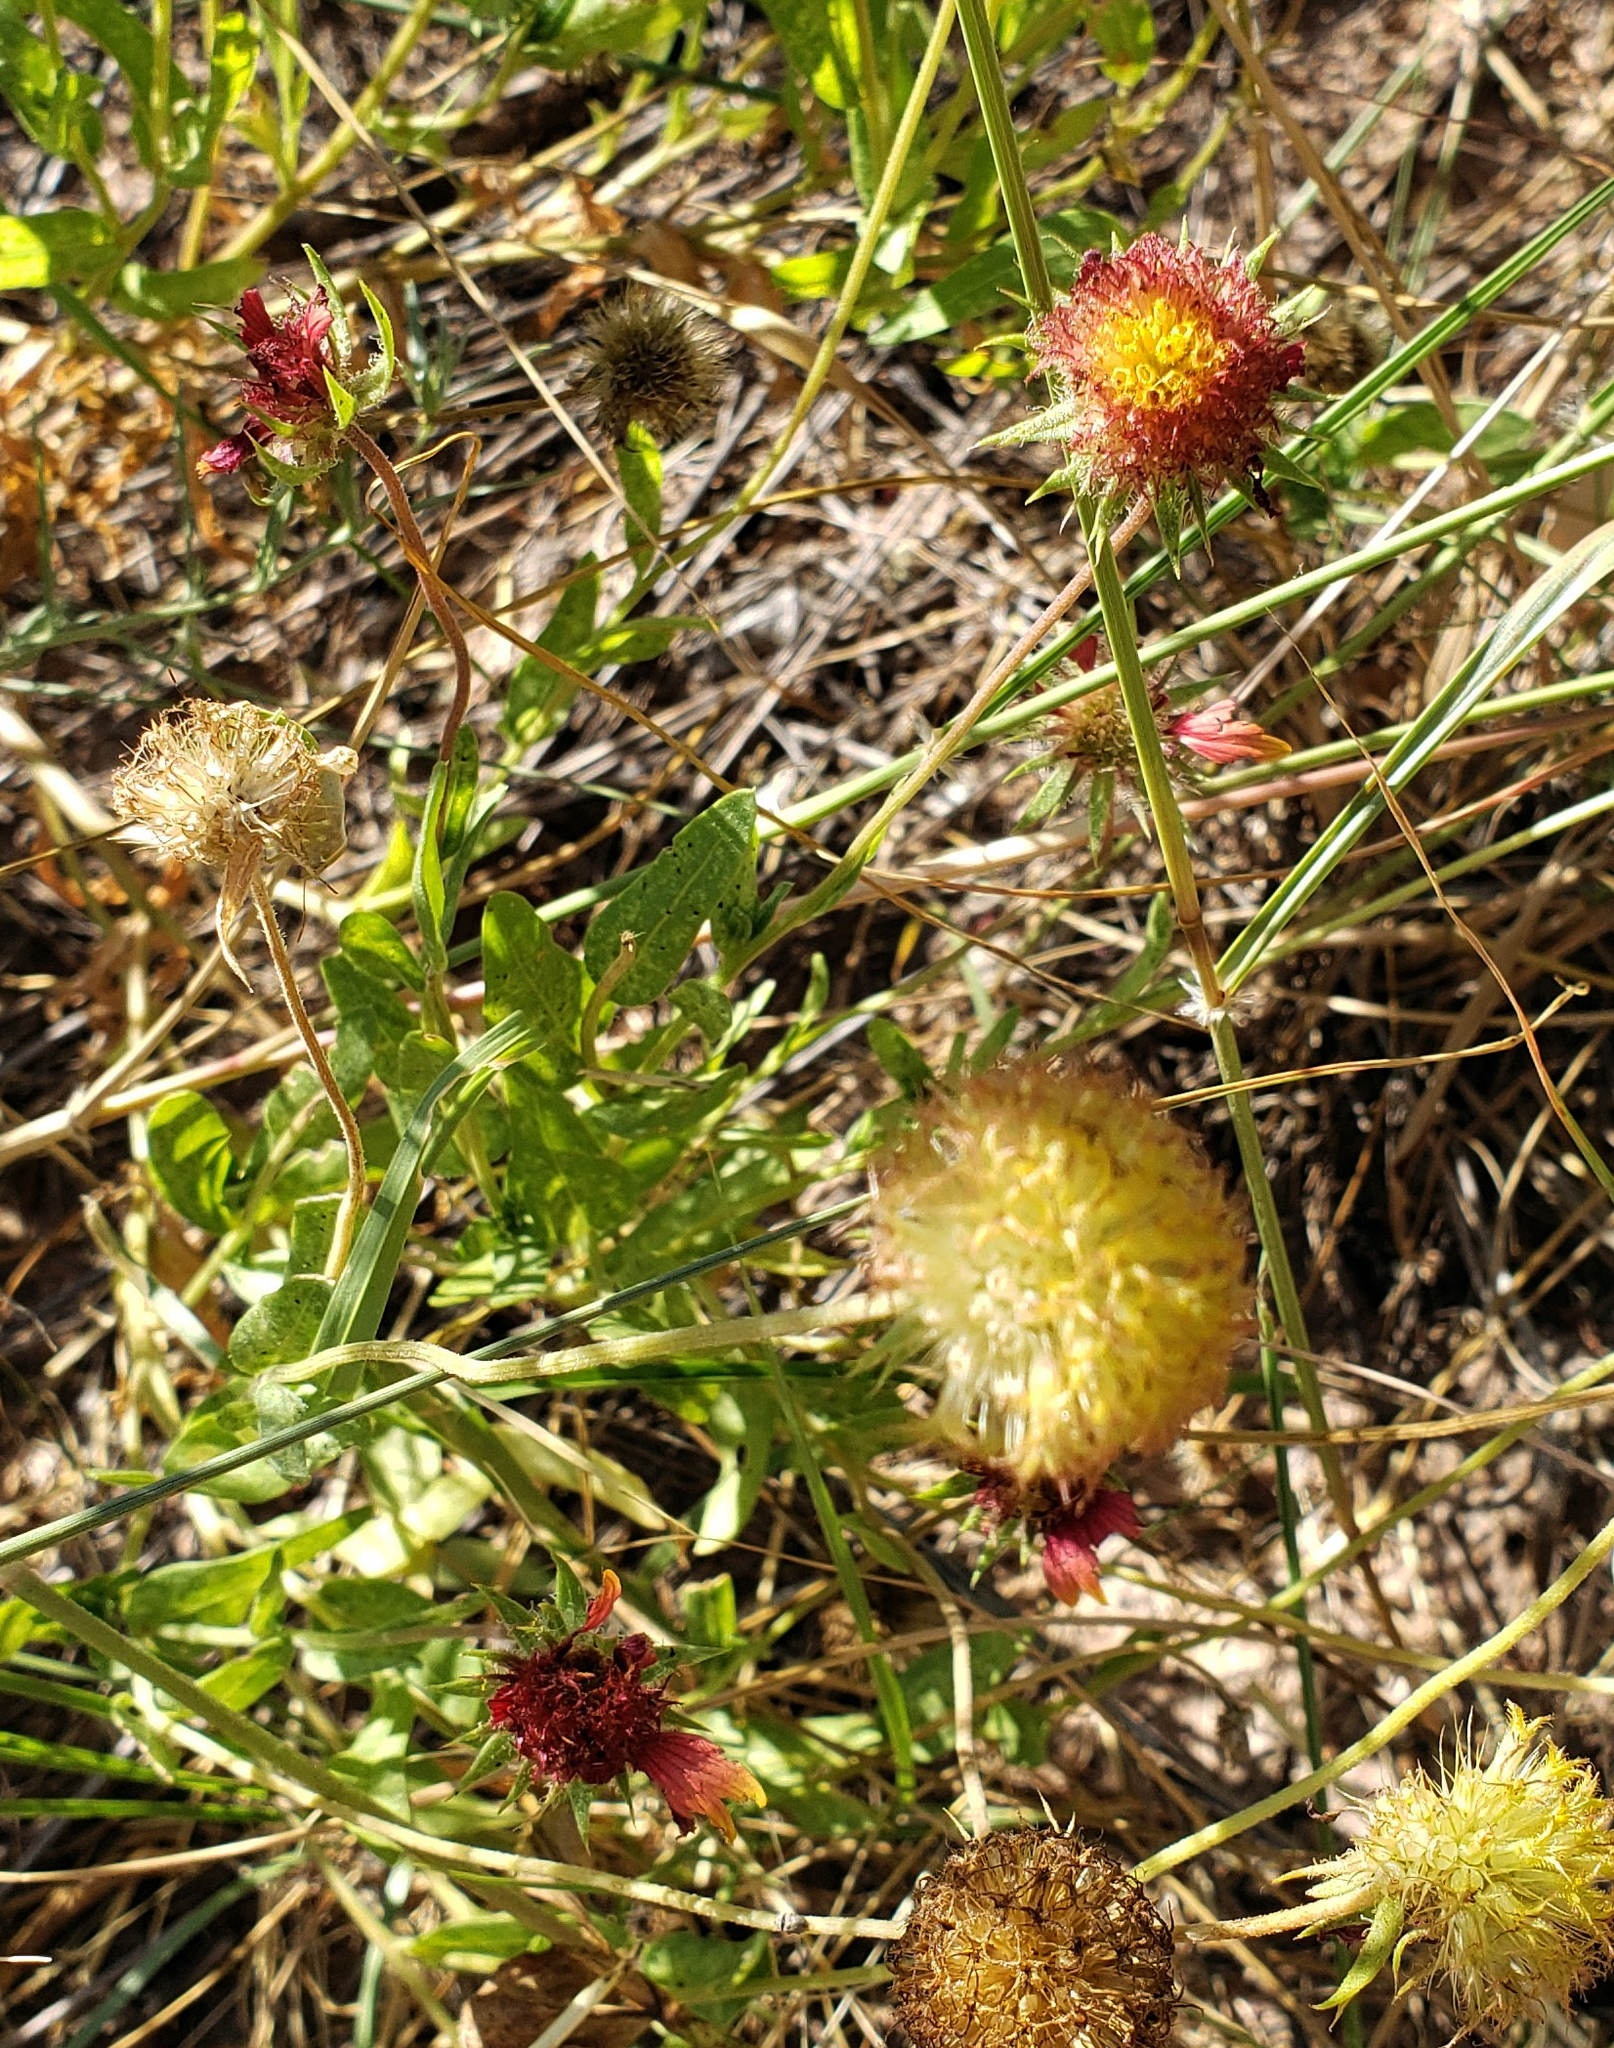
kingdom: Plantae
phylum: Tracheophyta
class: Magnoliopsida
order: Asterales
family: Asteraceae
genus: Gaillardia
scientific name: Gaillardia pulchella
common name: Firewheel
